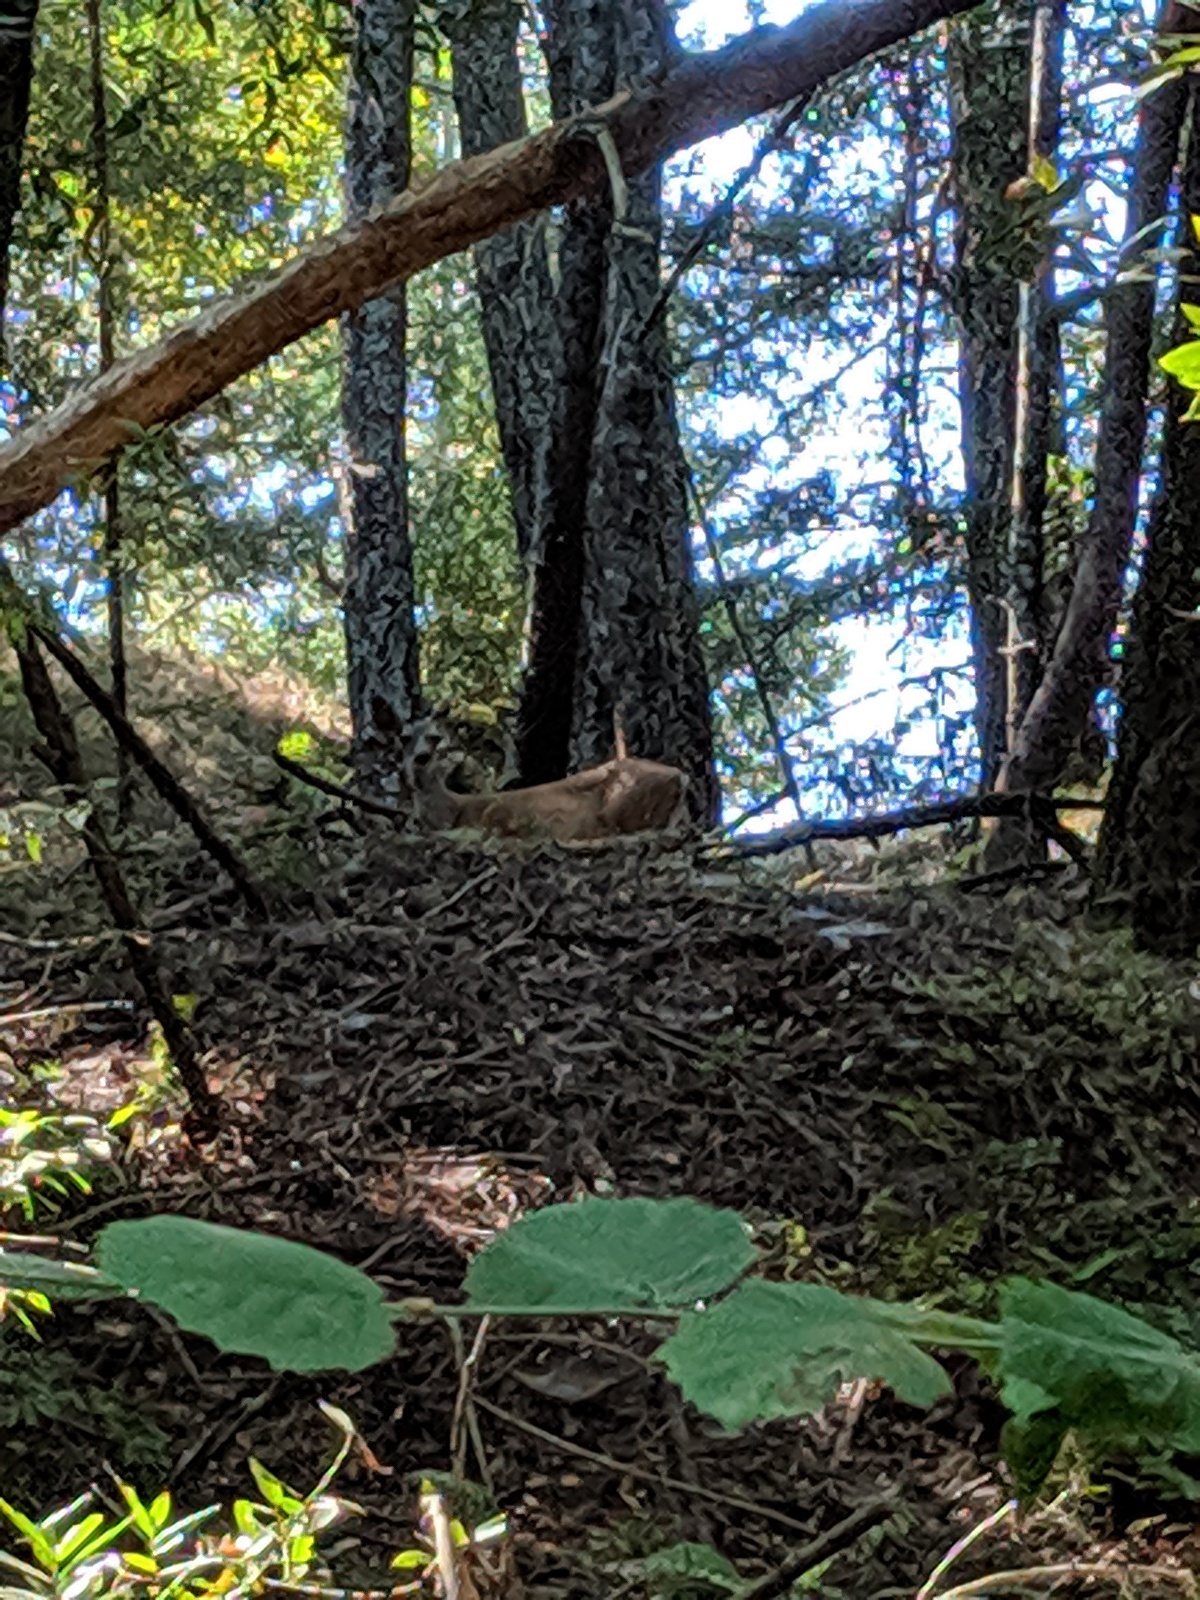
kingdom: Animalia
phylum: Chordata
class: Mammalia
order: Artiodactyla
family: Cervidae
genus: Odocoileus
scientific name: Odocoileus hemionus
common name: Mule deer
